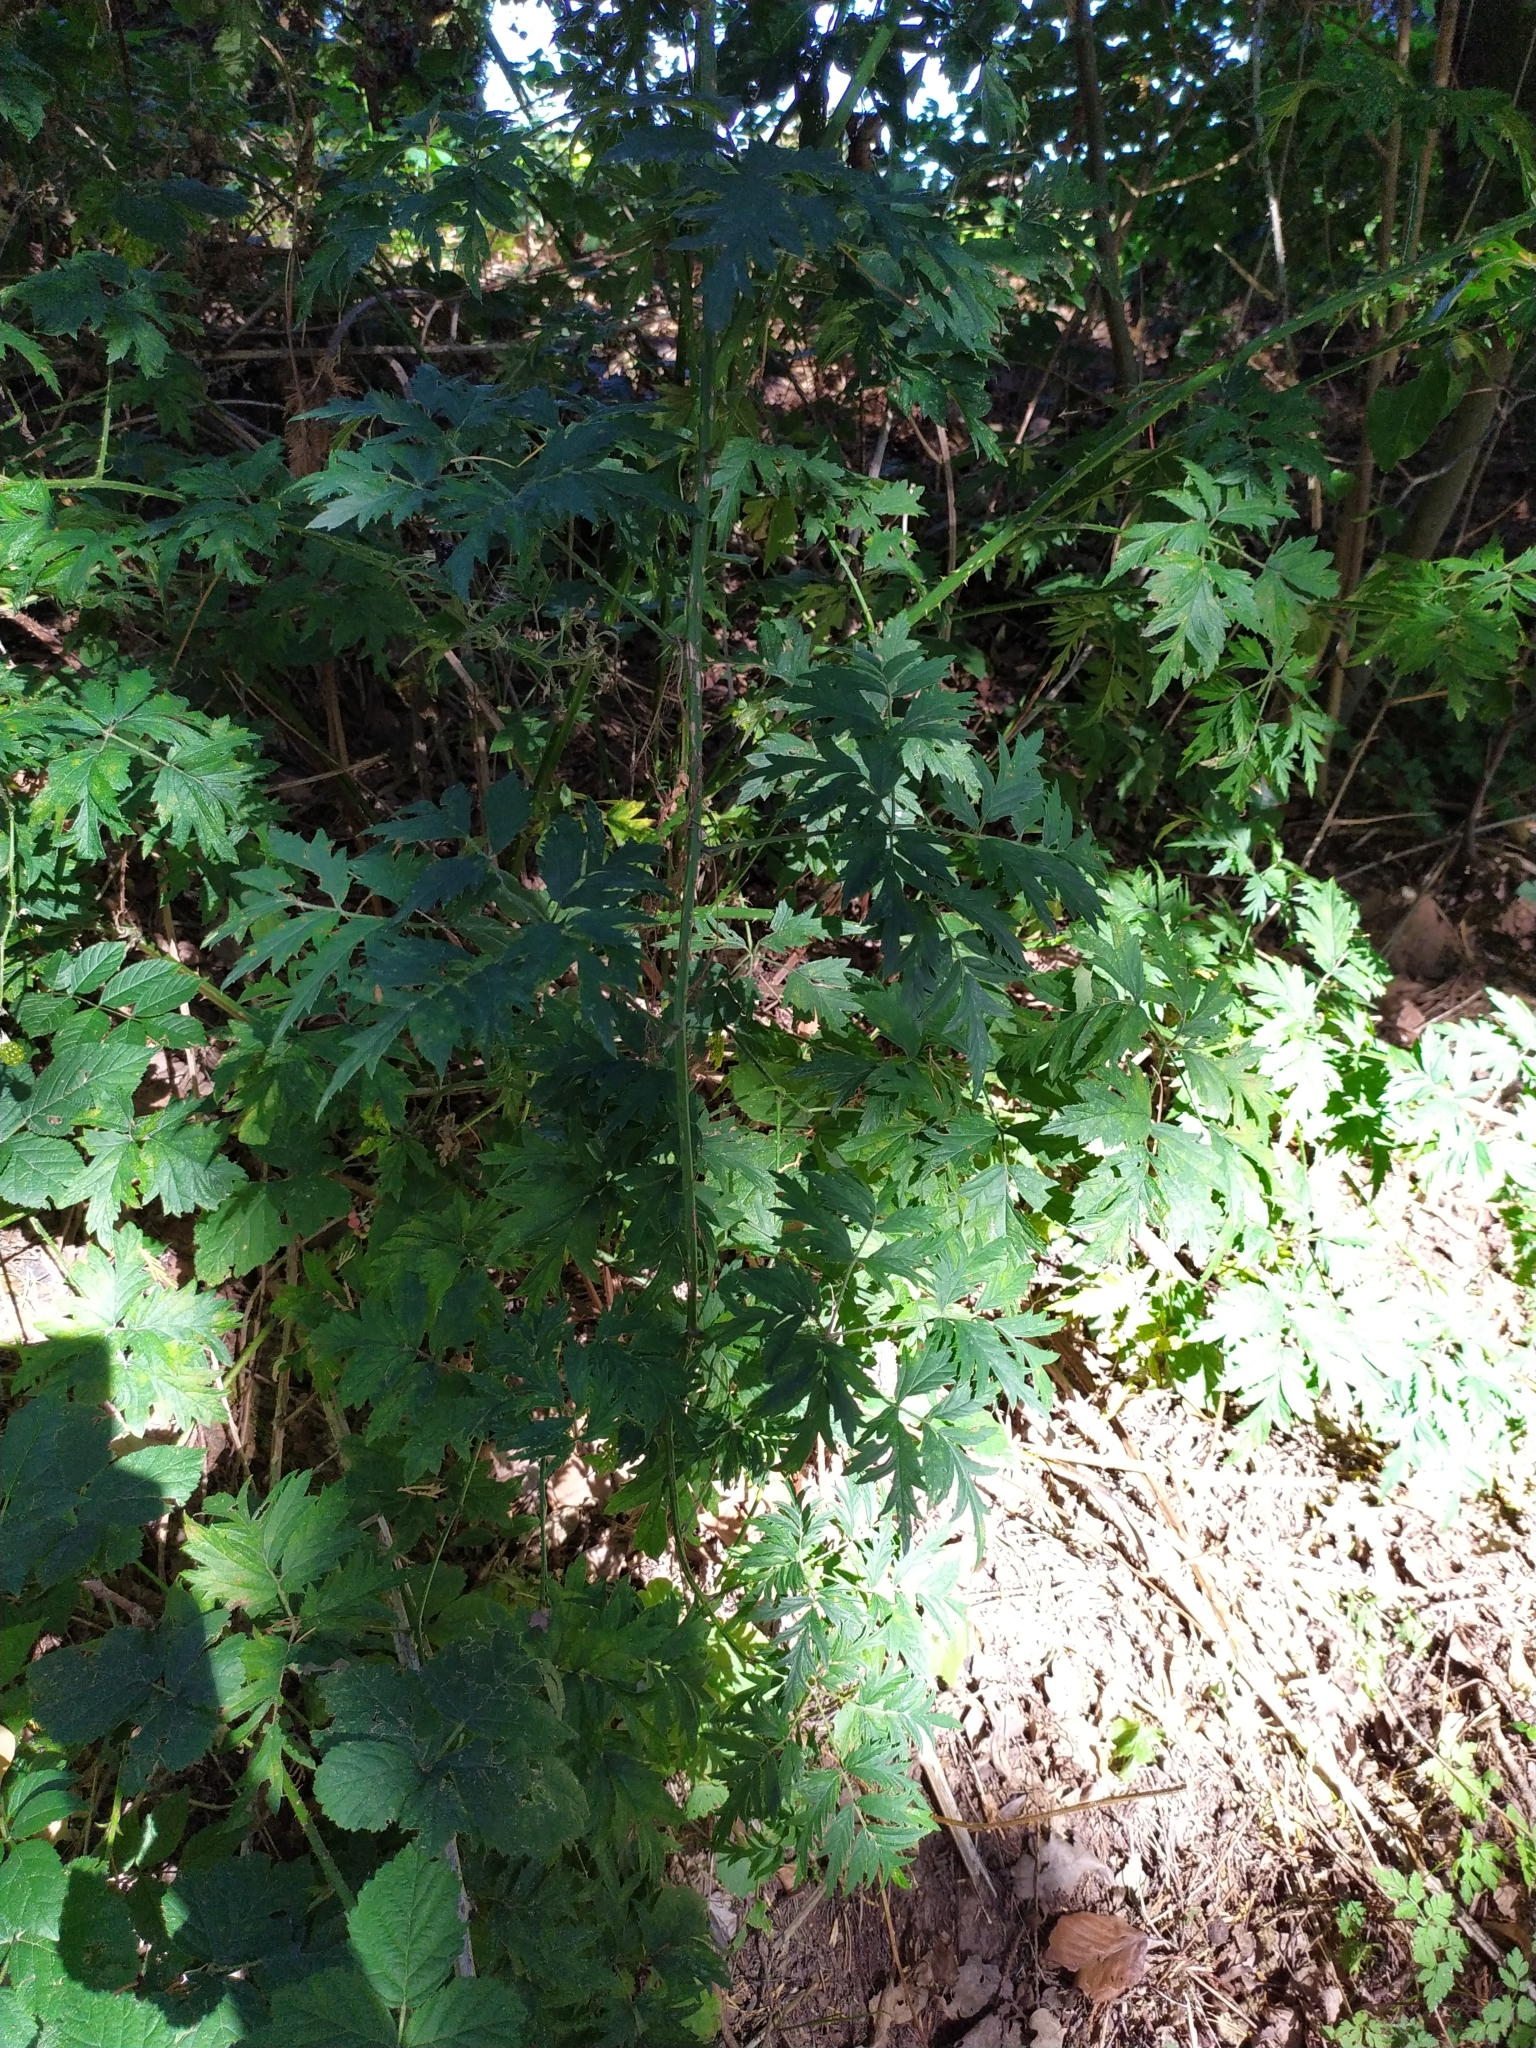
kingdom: Plantae
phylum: Tracheophyta
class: Magnoliopsida
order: Rosales
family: Rosaceae
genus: Rubus
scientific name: Rubus laciniatus
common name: Evergreen blackberry
